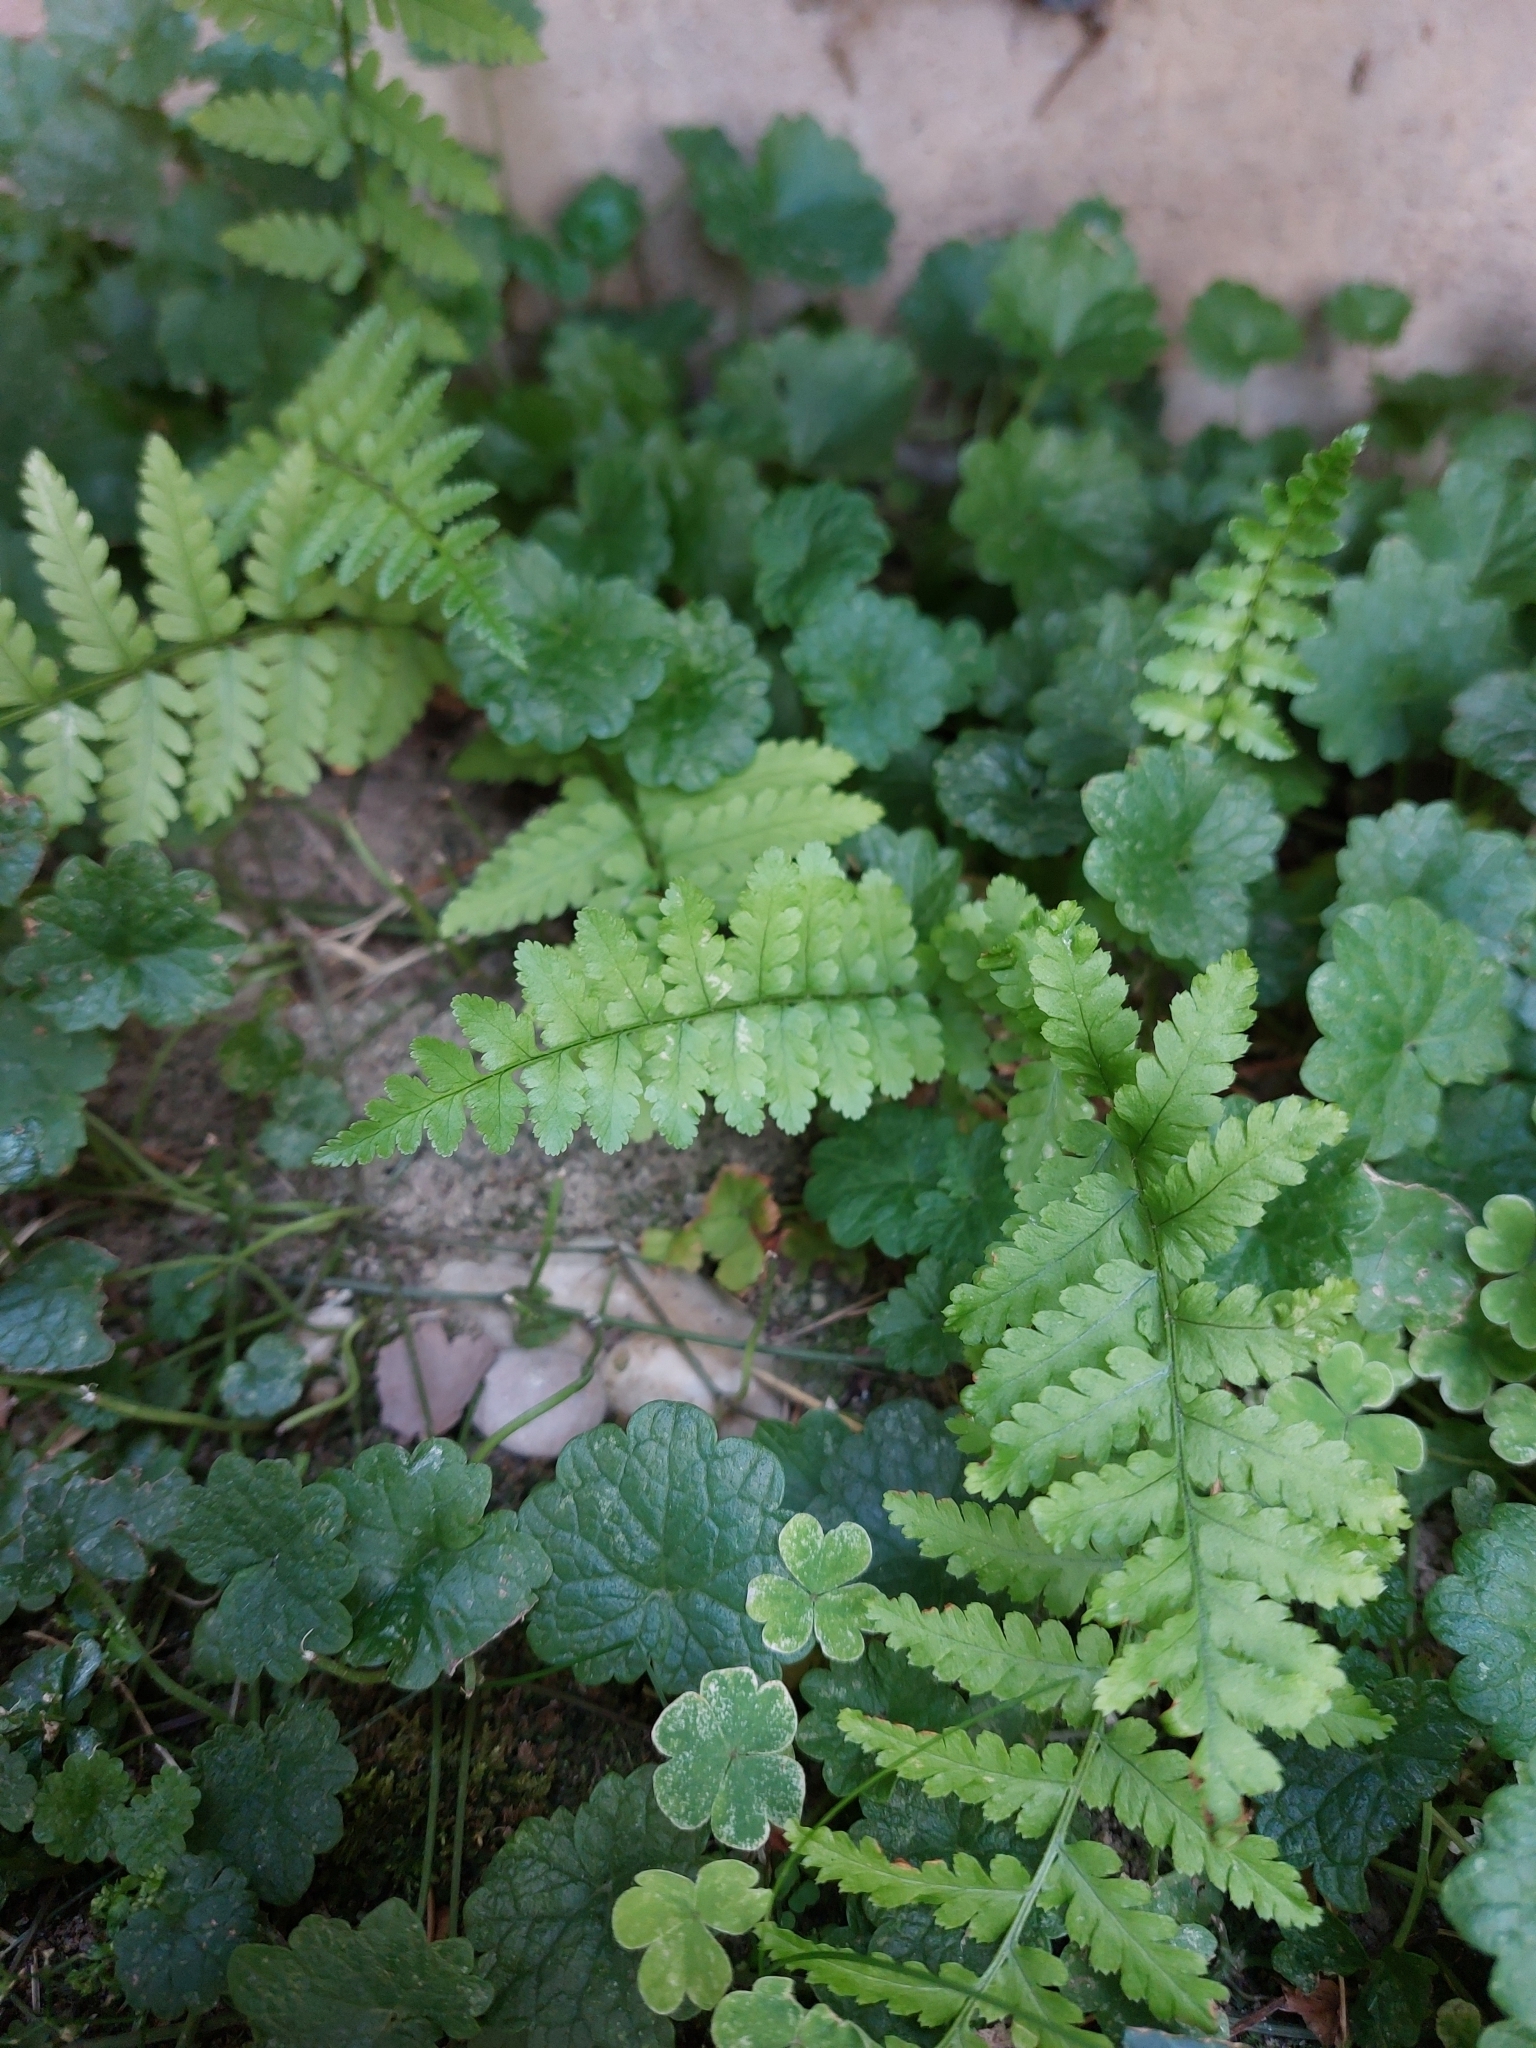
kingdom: Plantae
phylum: Tracheophyta
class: Polypodiopsida
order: Polypodiales
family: Dryopteridaceae
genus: Dryopteris
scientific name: Dryopteris filix-mas
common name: Male fern
